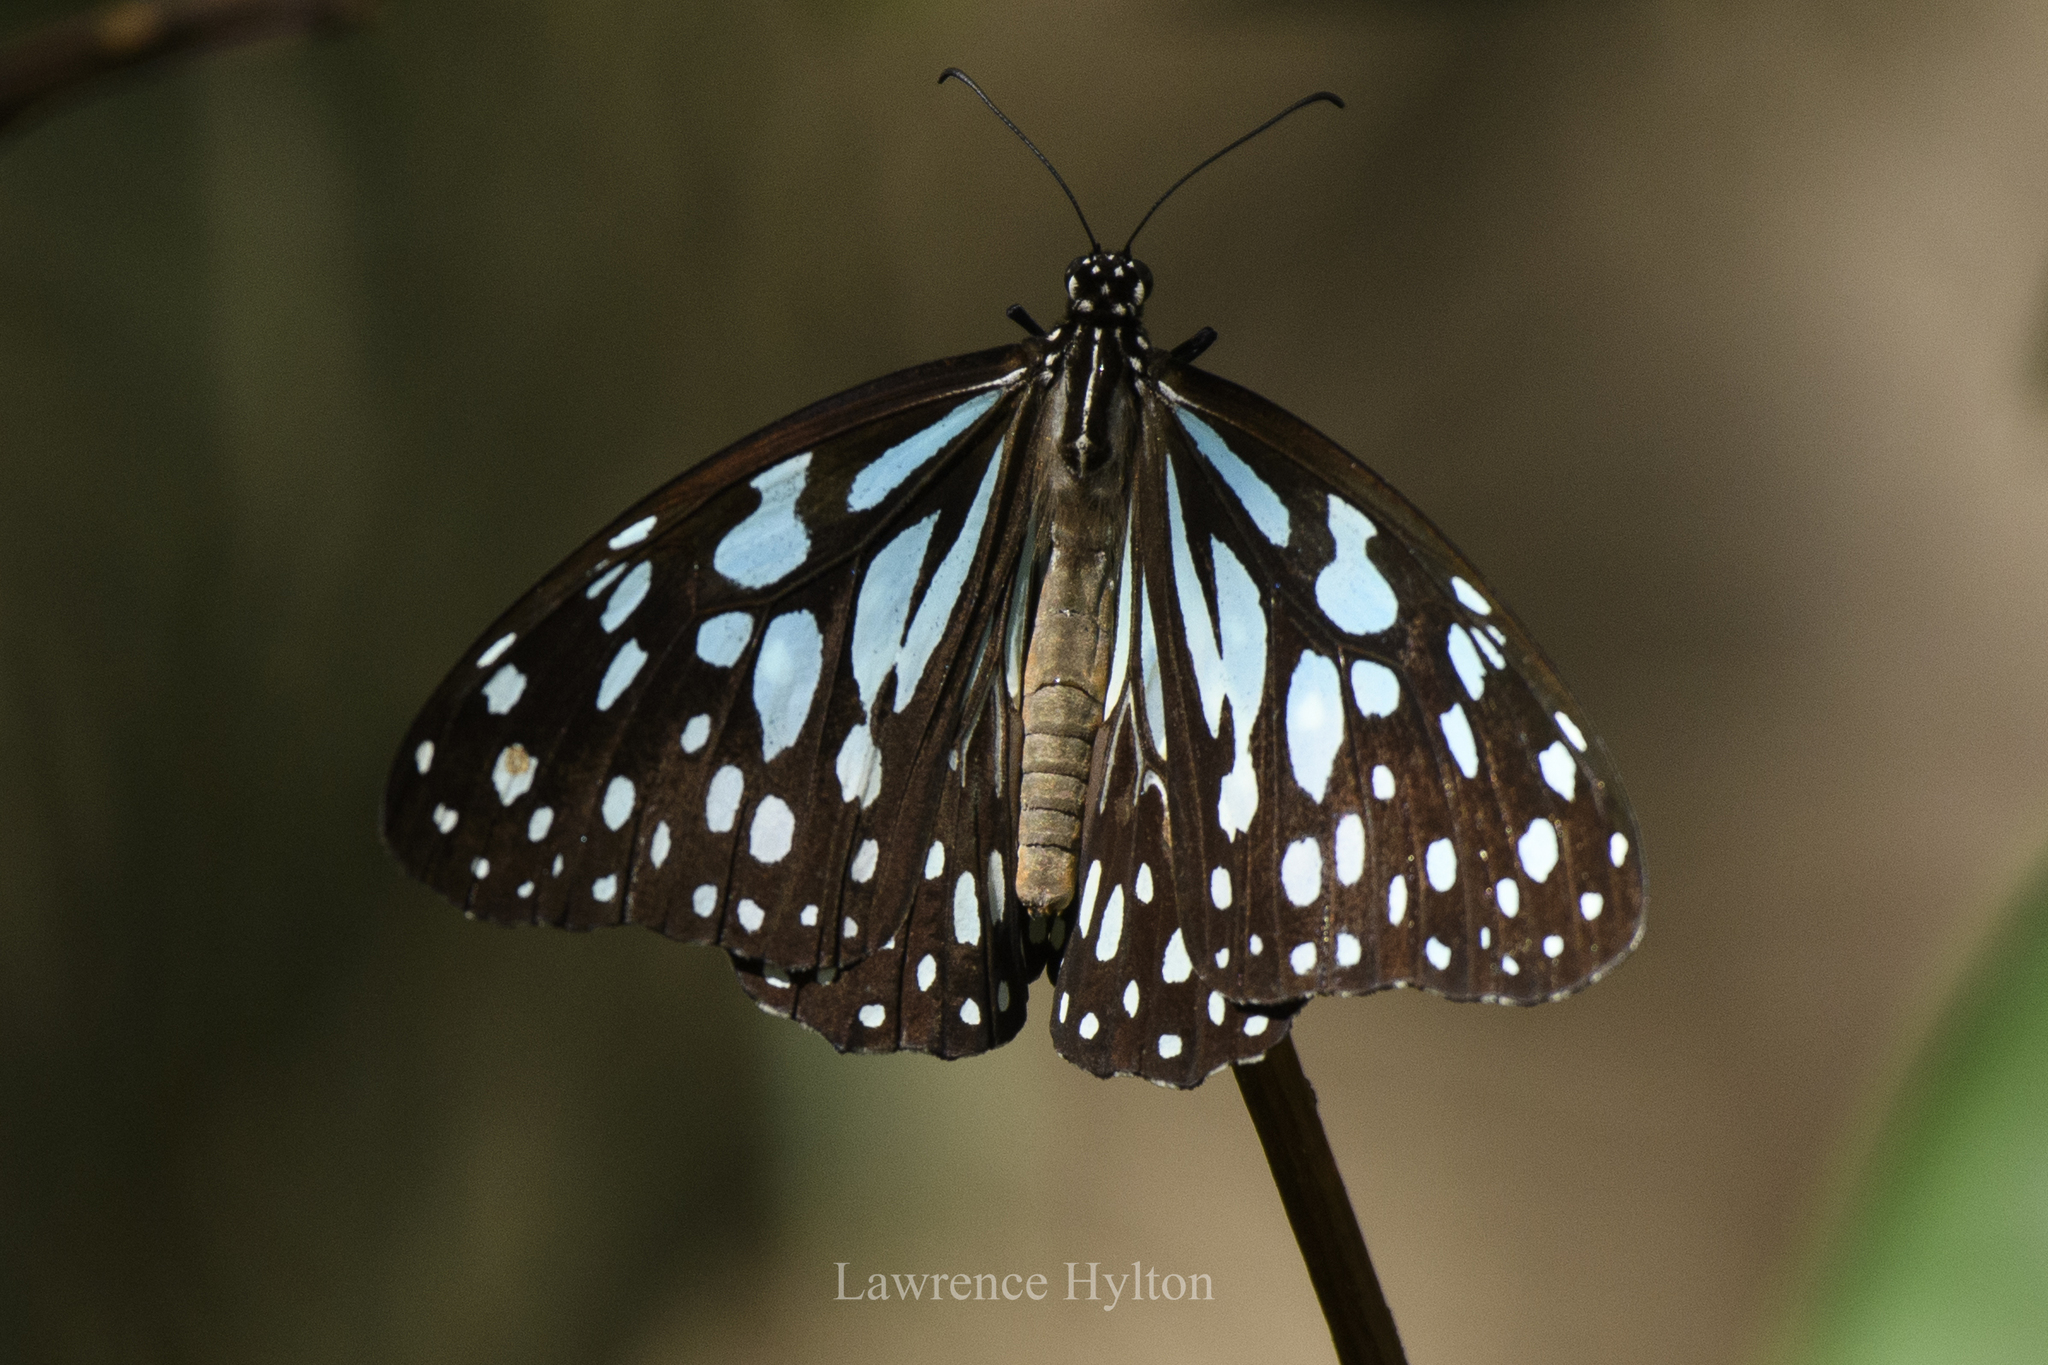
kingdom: Animalia
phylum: Arthropoda
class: Insecta
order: Lepidoptera
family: Nymphalidae
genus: Tirumala
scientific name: Tirumala limniace
